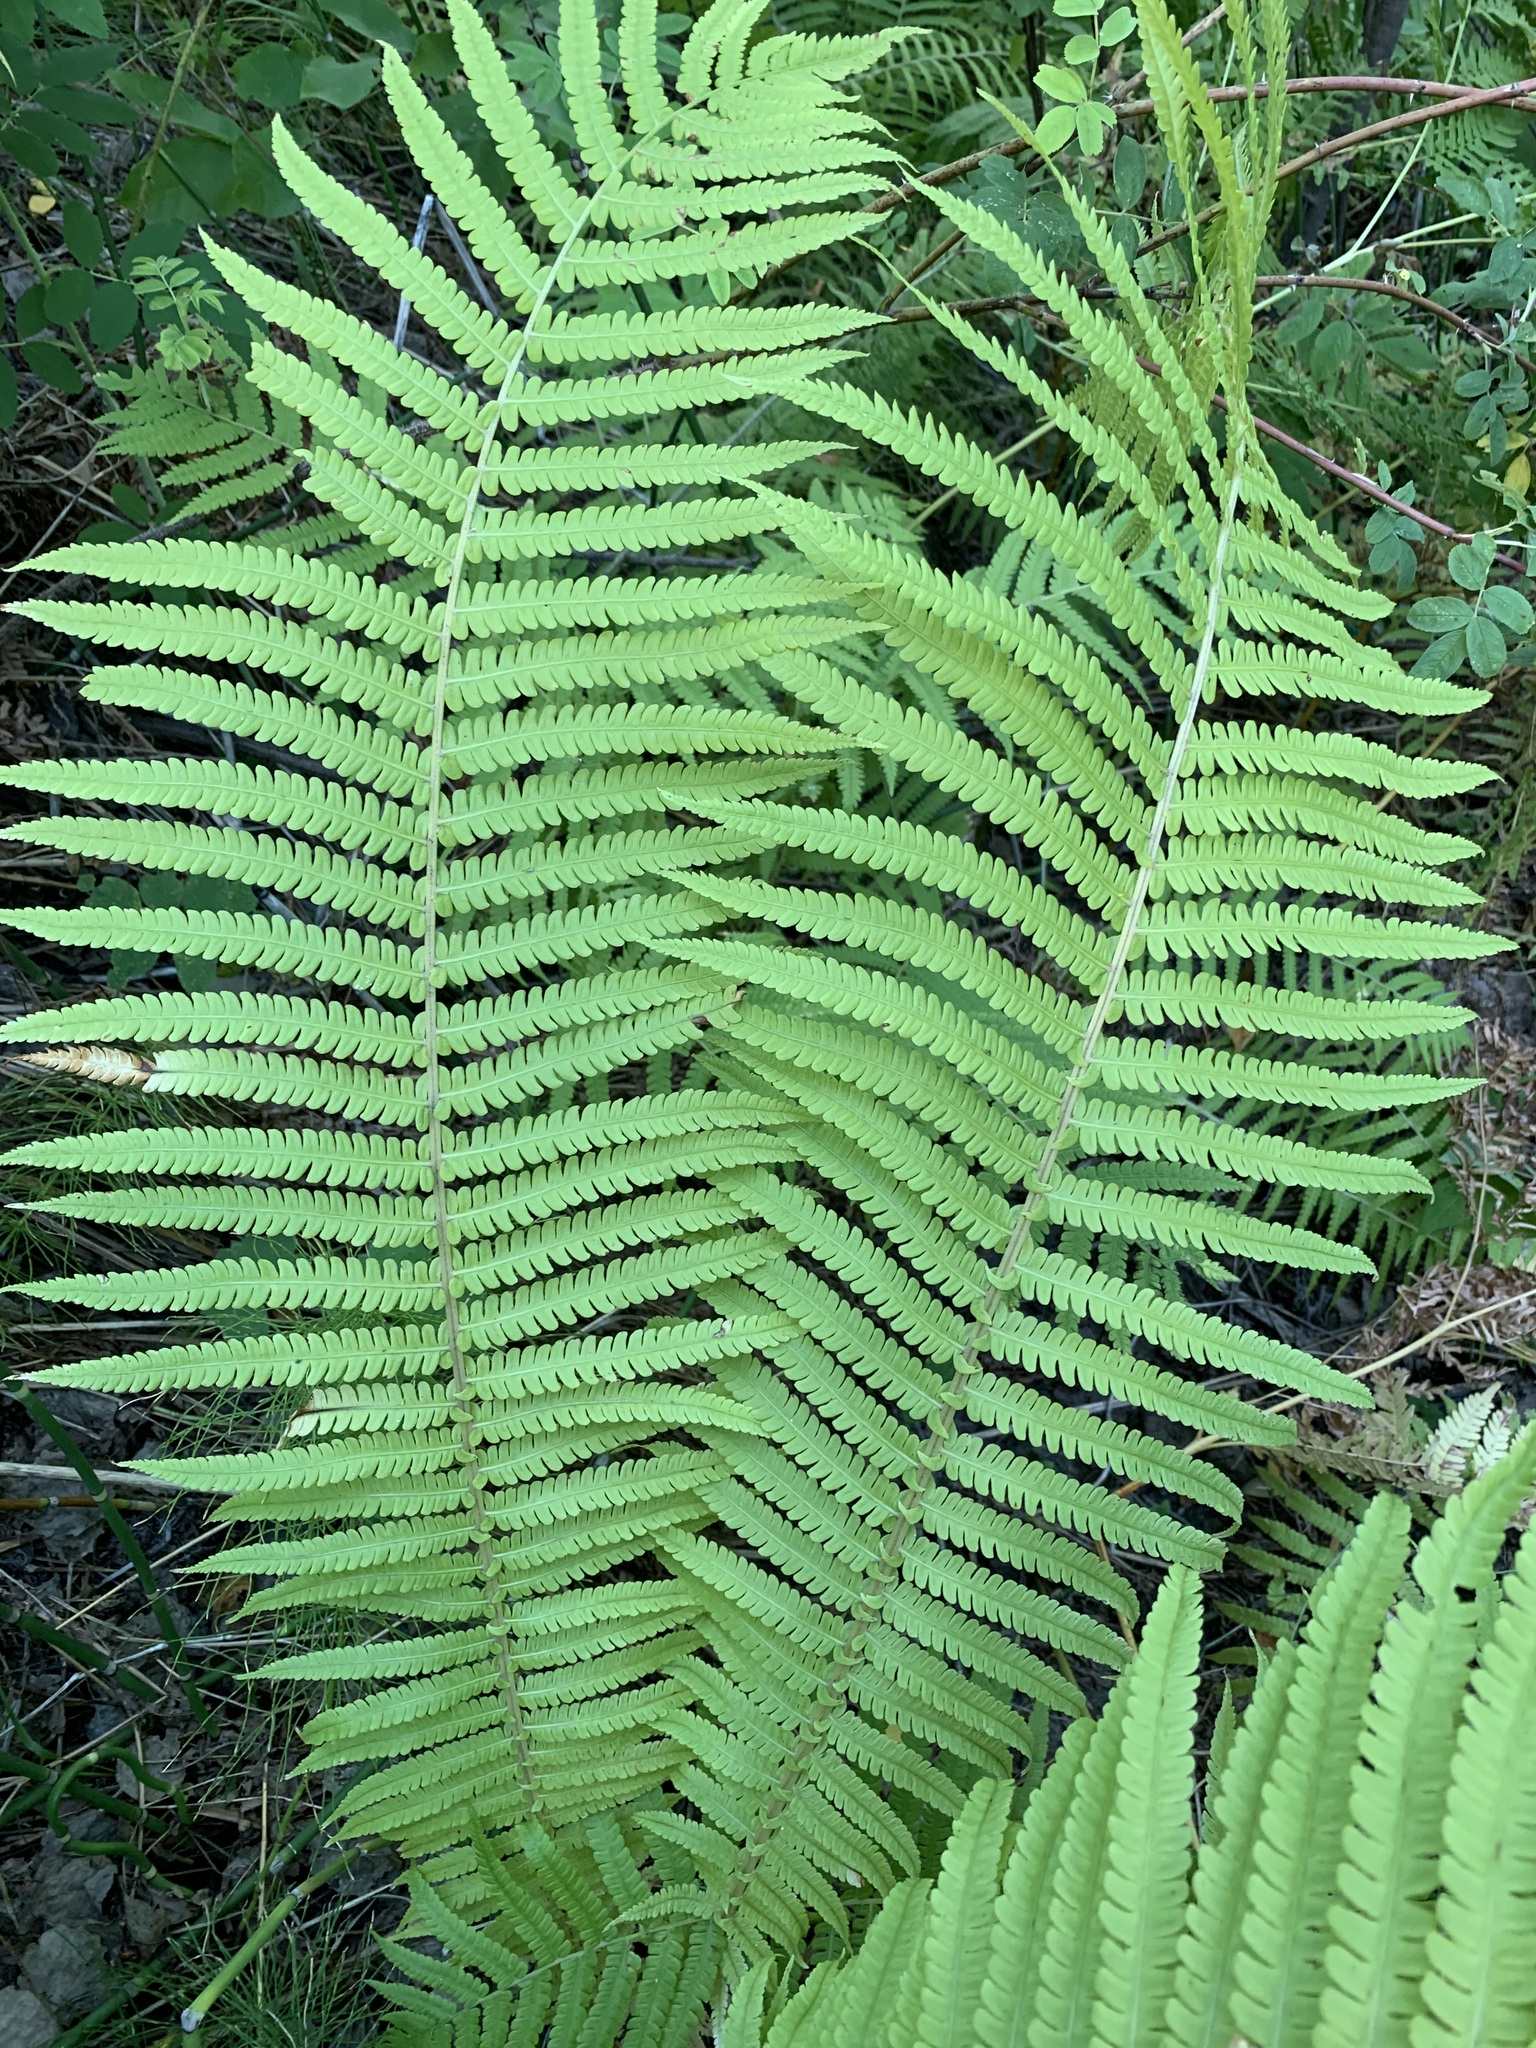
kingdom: Plantae
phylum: Tracheophyta
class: Polypodiopsida
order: Polypodiales
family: Onocleaceae
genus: Matteuccia
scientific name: Matteuccia struthiopteris
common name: Ostrich fern
